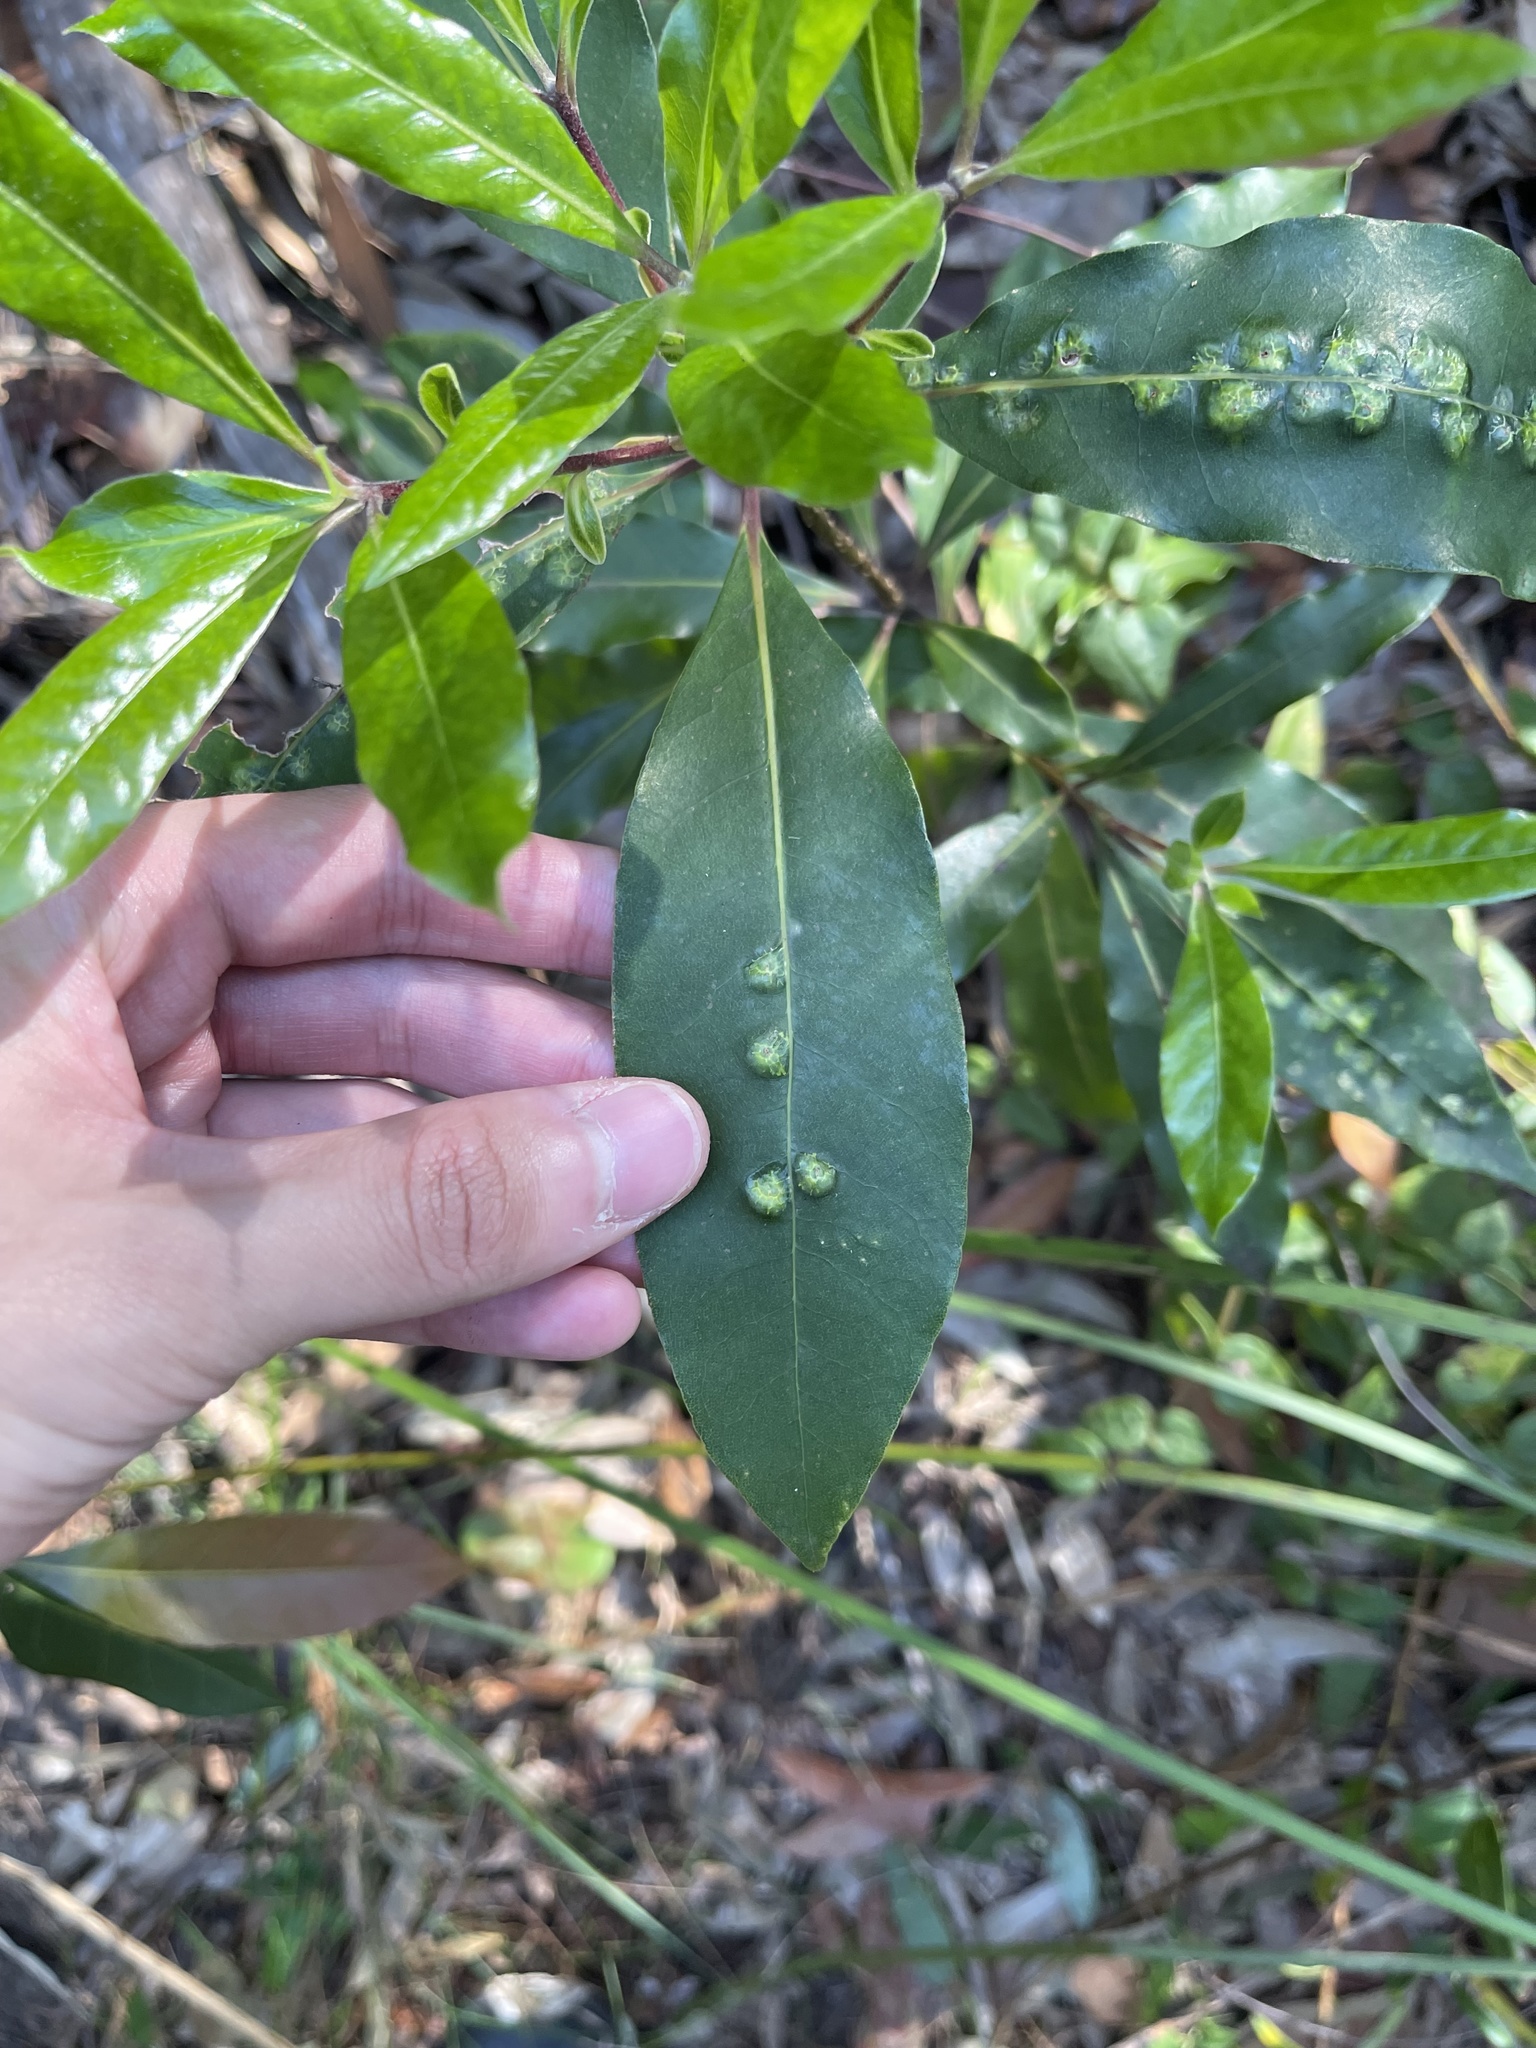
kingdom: Plantae
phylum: Tracheophyta
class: Magnoliopsida
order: Apiales
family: Pittosporaceae
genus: Pittosporum
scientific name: Pittosporum undulatum
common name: Australian cheesewood
